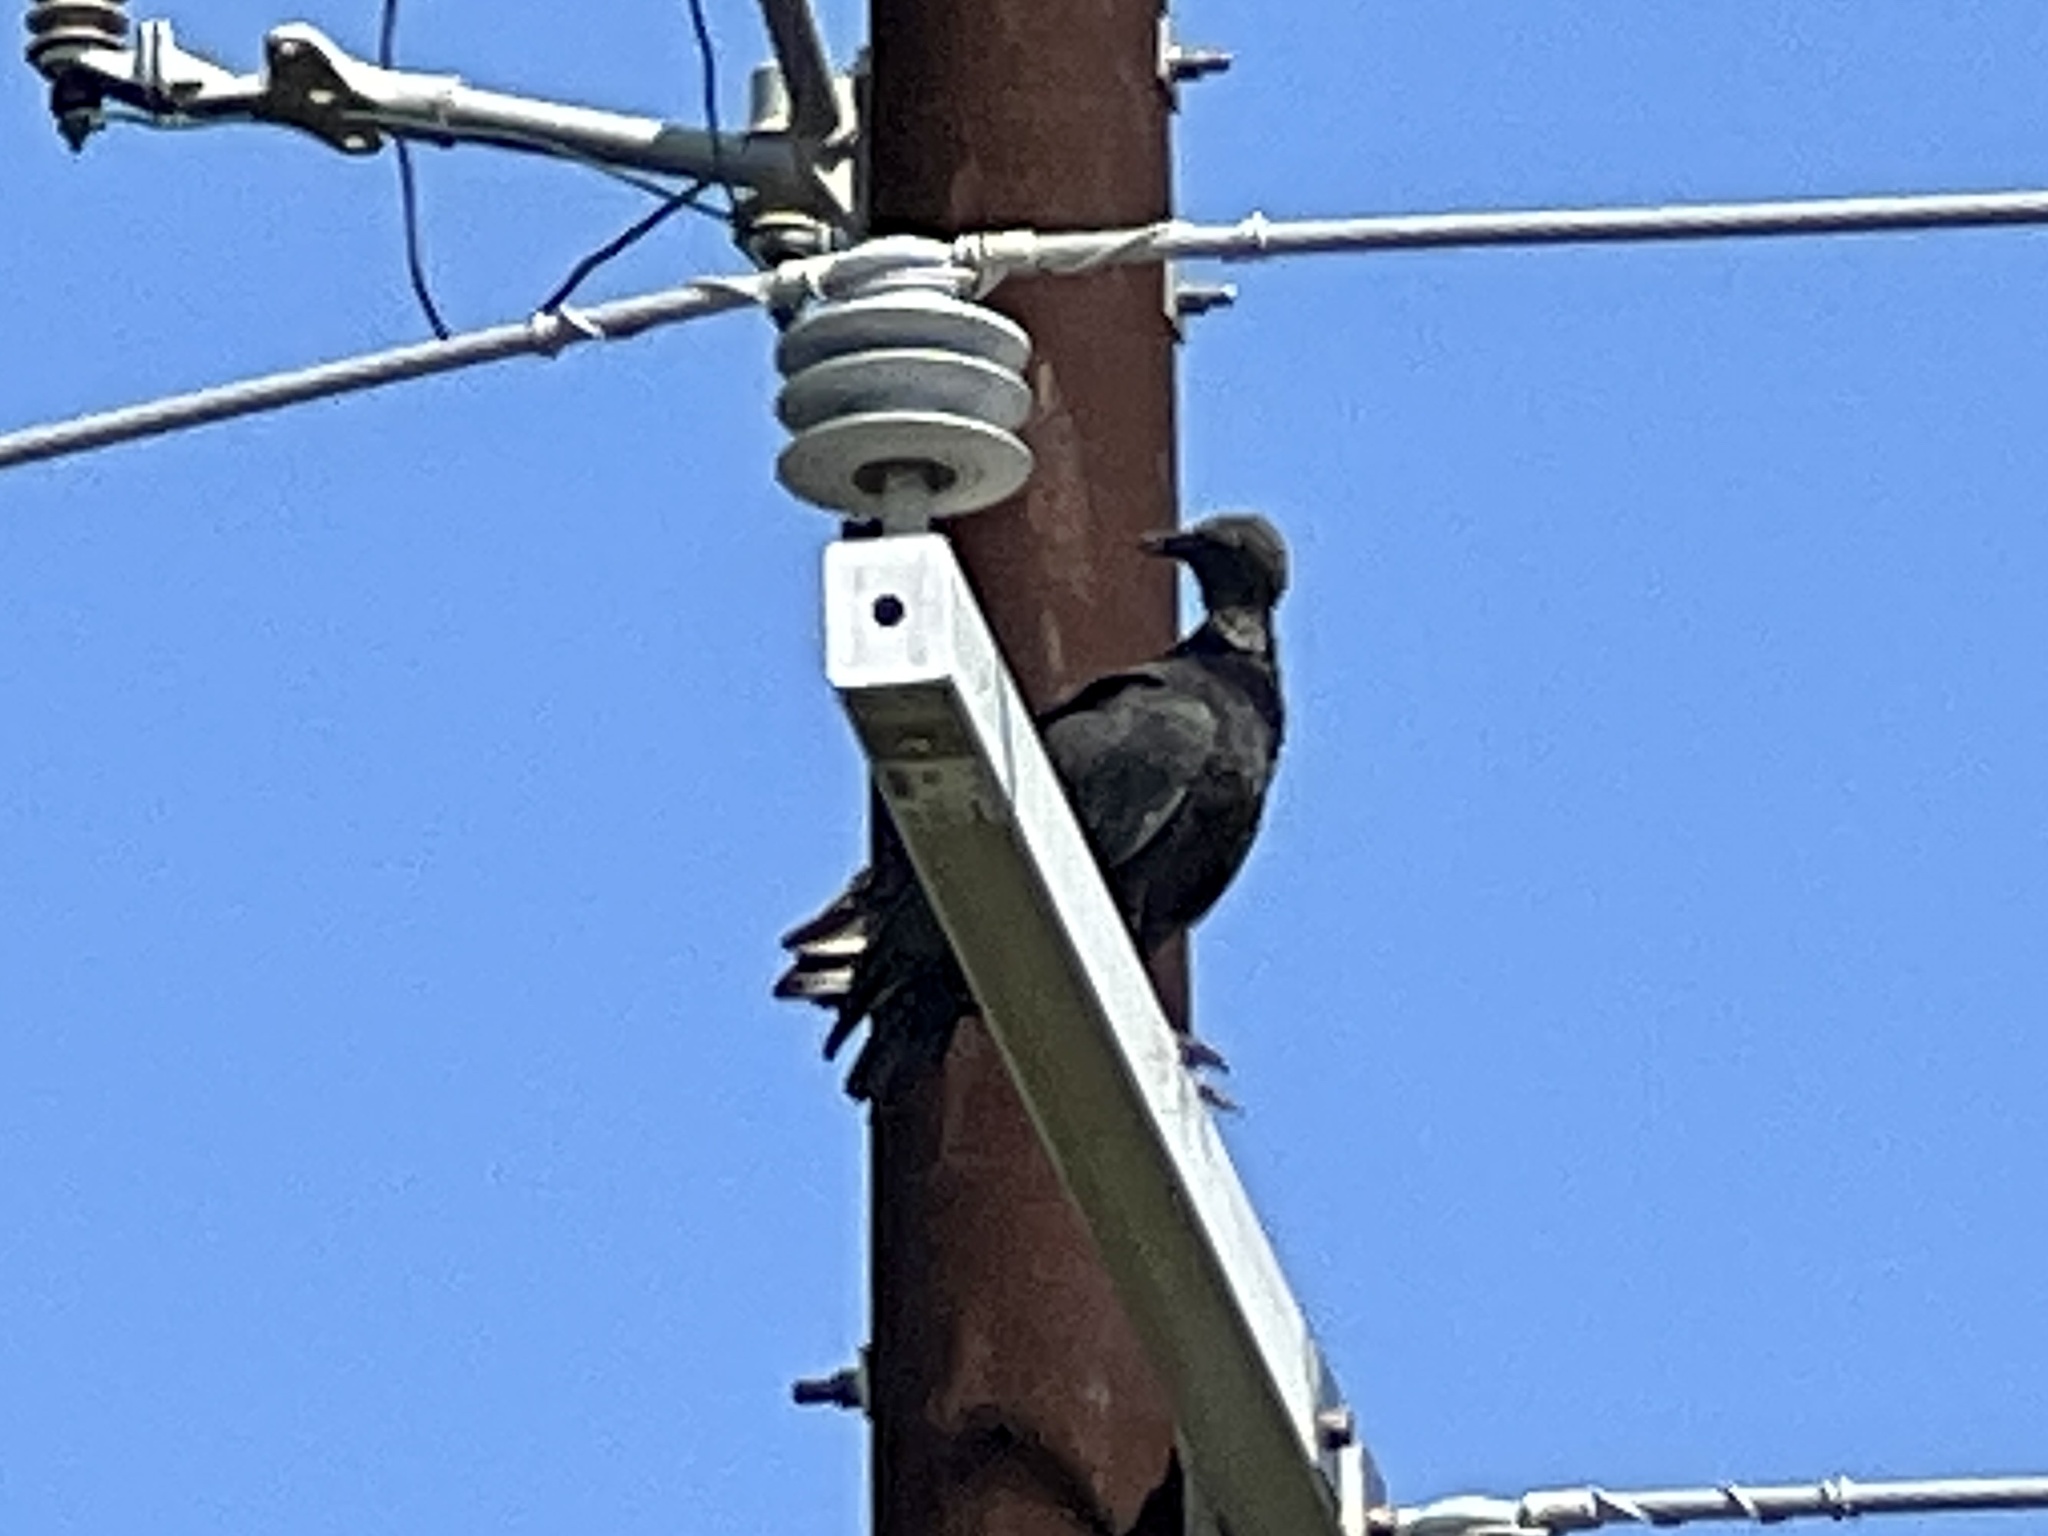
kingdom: Animalia
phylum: Chordata
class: Aves
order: Accipitriformes
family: Cathartidae
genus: Coragyps
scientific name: Coragyps atratus
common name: Black vulture
